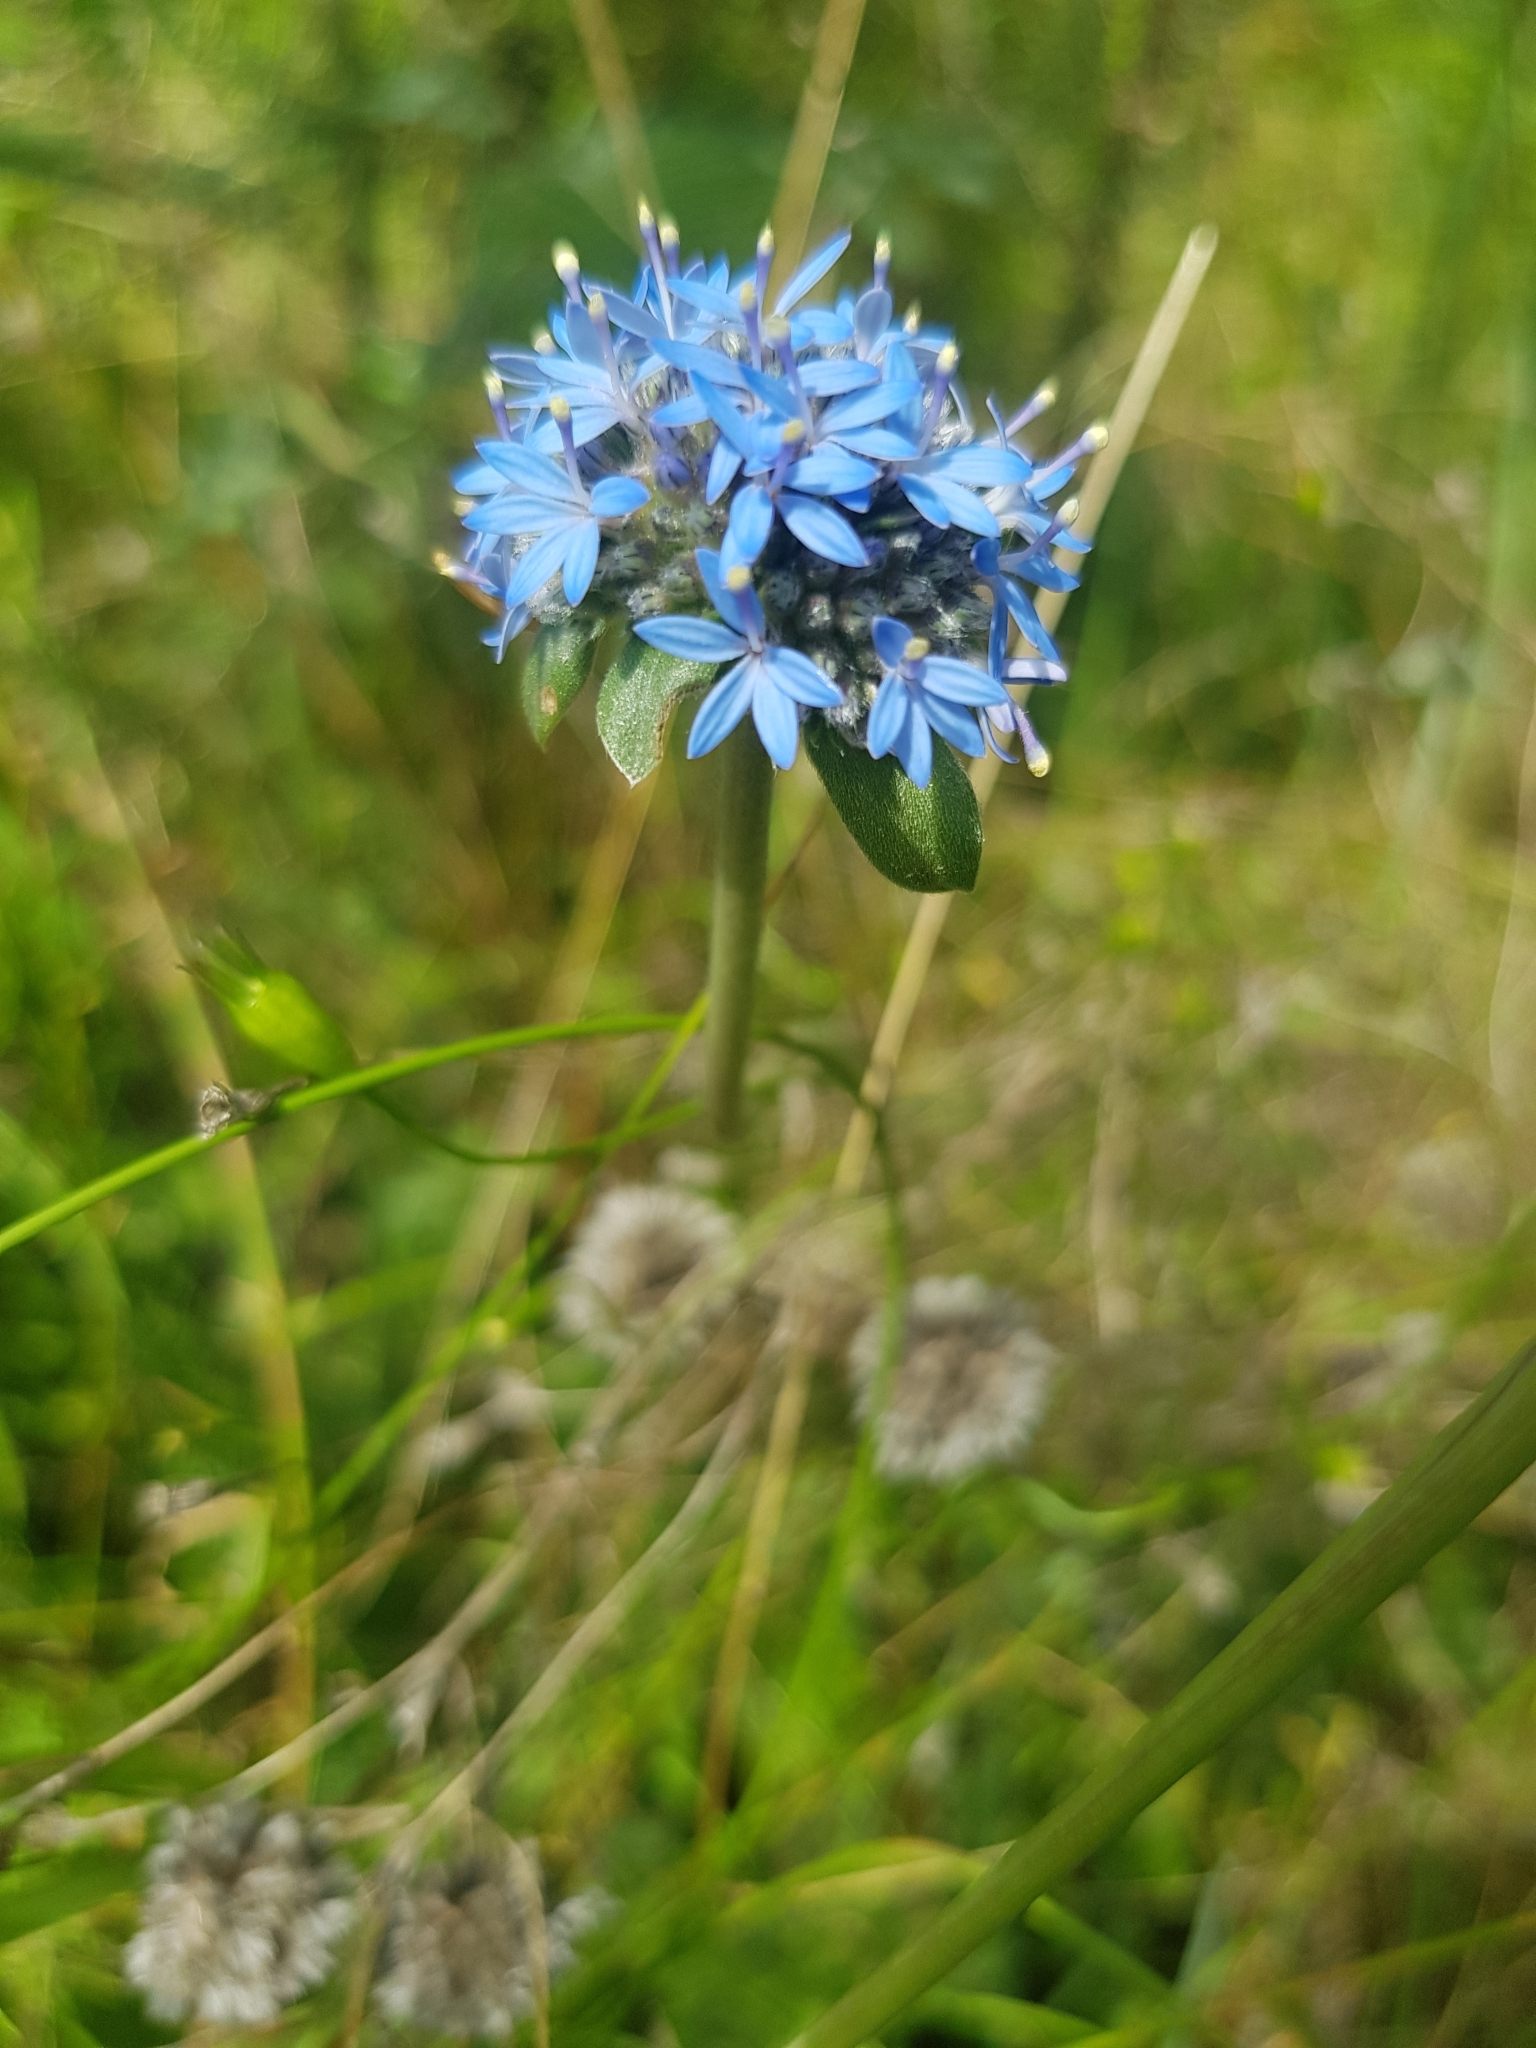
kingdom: Plantae
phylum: Tracheophyta
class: Magnoliopsida
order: Asterales
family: Goodeniaceae
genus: Brunonia
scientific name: Brunonia australis
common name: Blue pincushion
